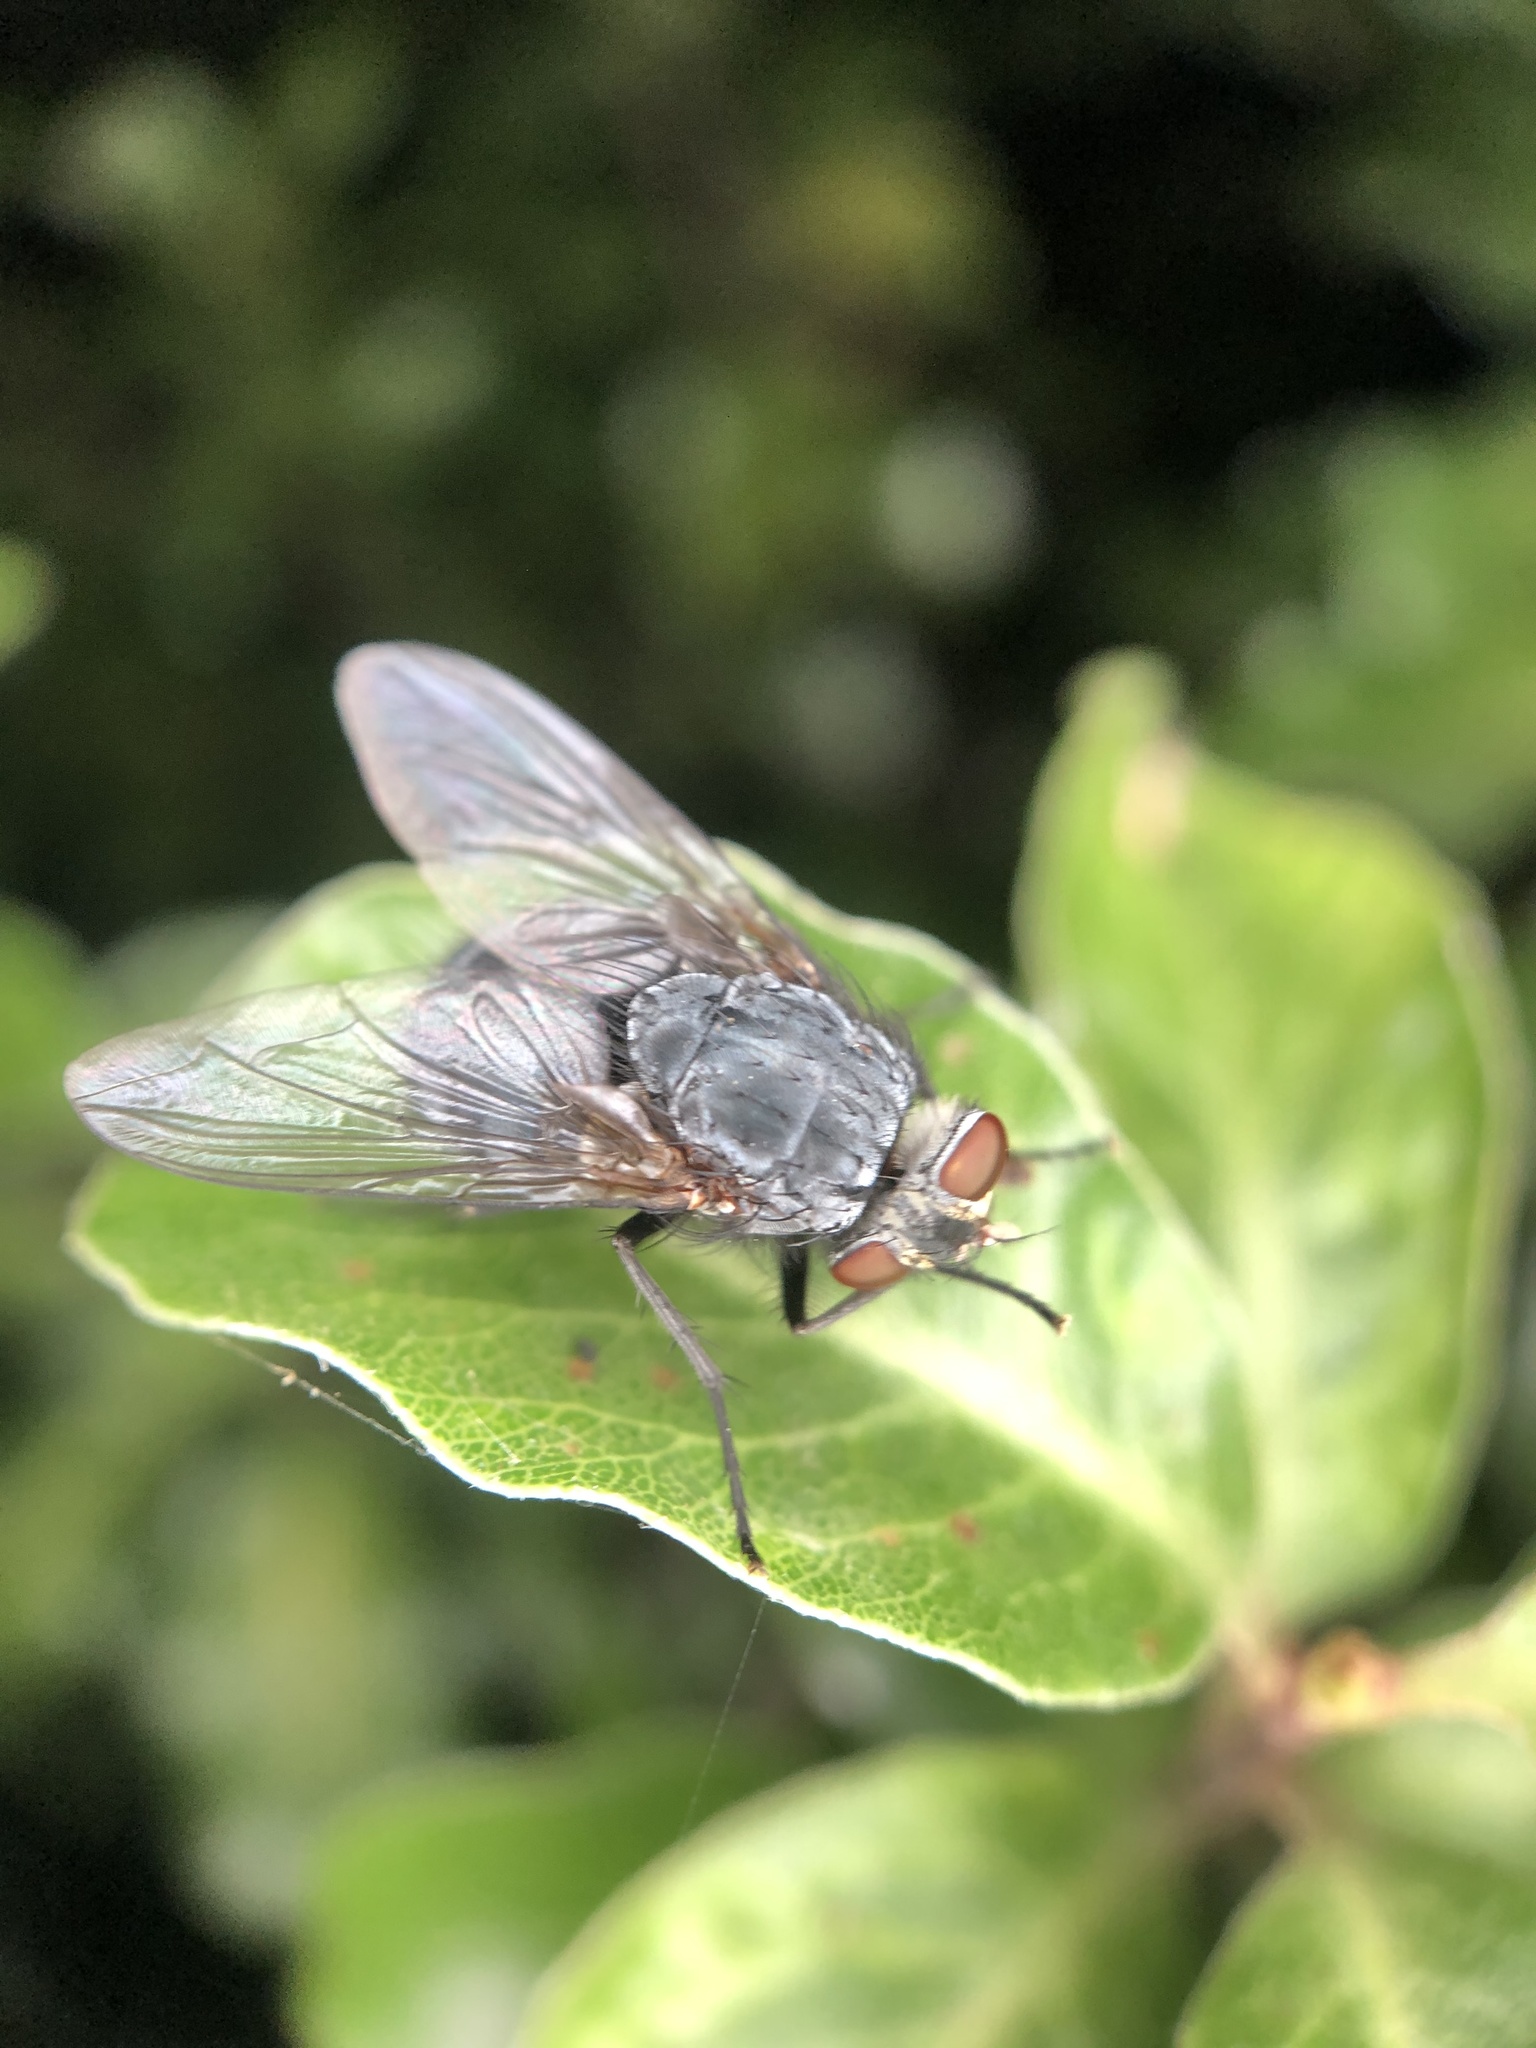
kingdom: Animalia
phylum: Arthropoda
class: Insecta
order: Diptera
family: Calliphoridae
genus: Calliphora
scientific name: Calliphora vicina
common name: Common blow flie
